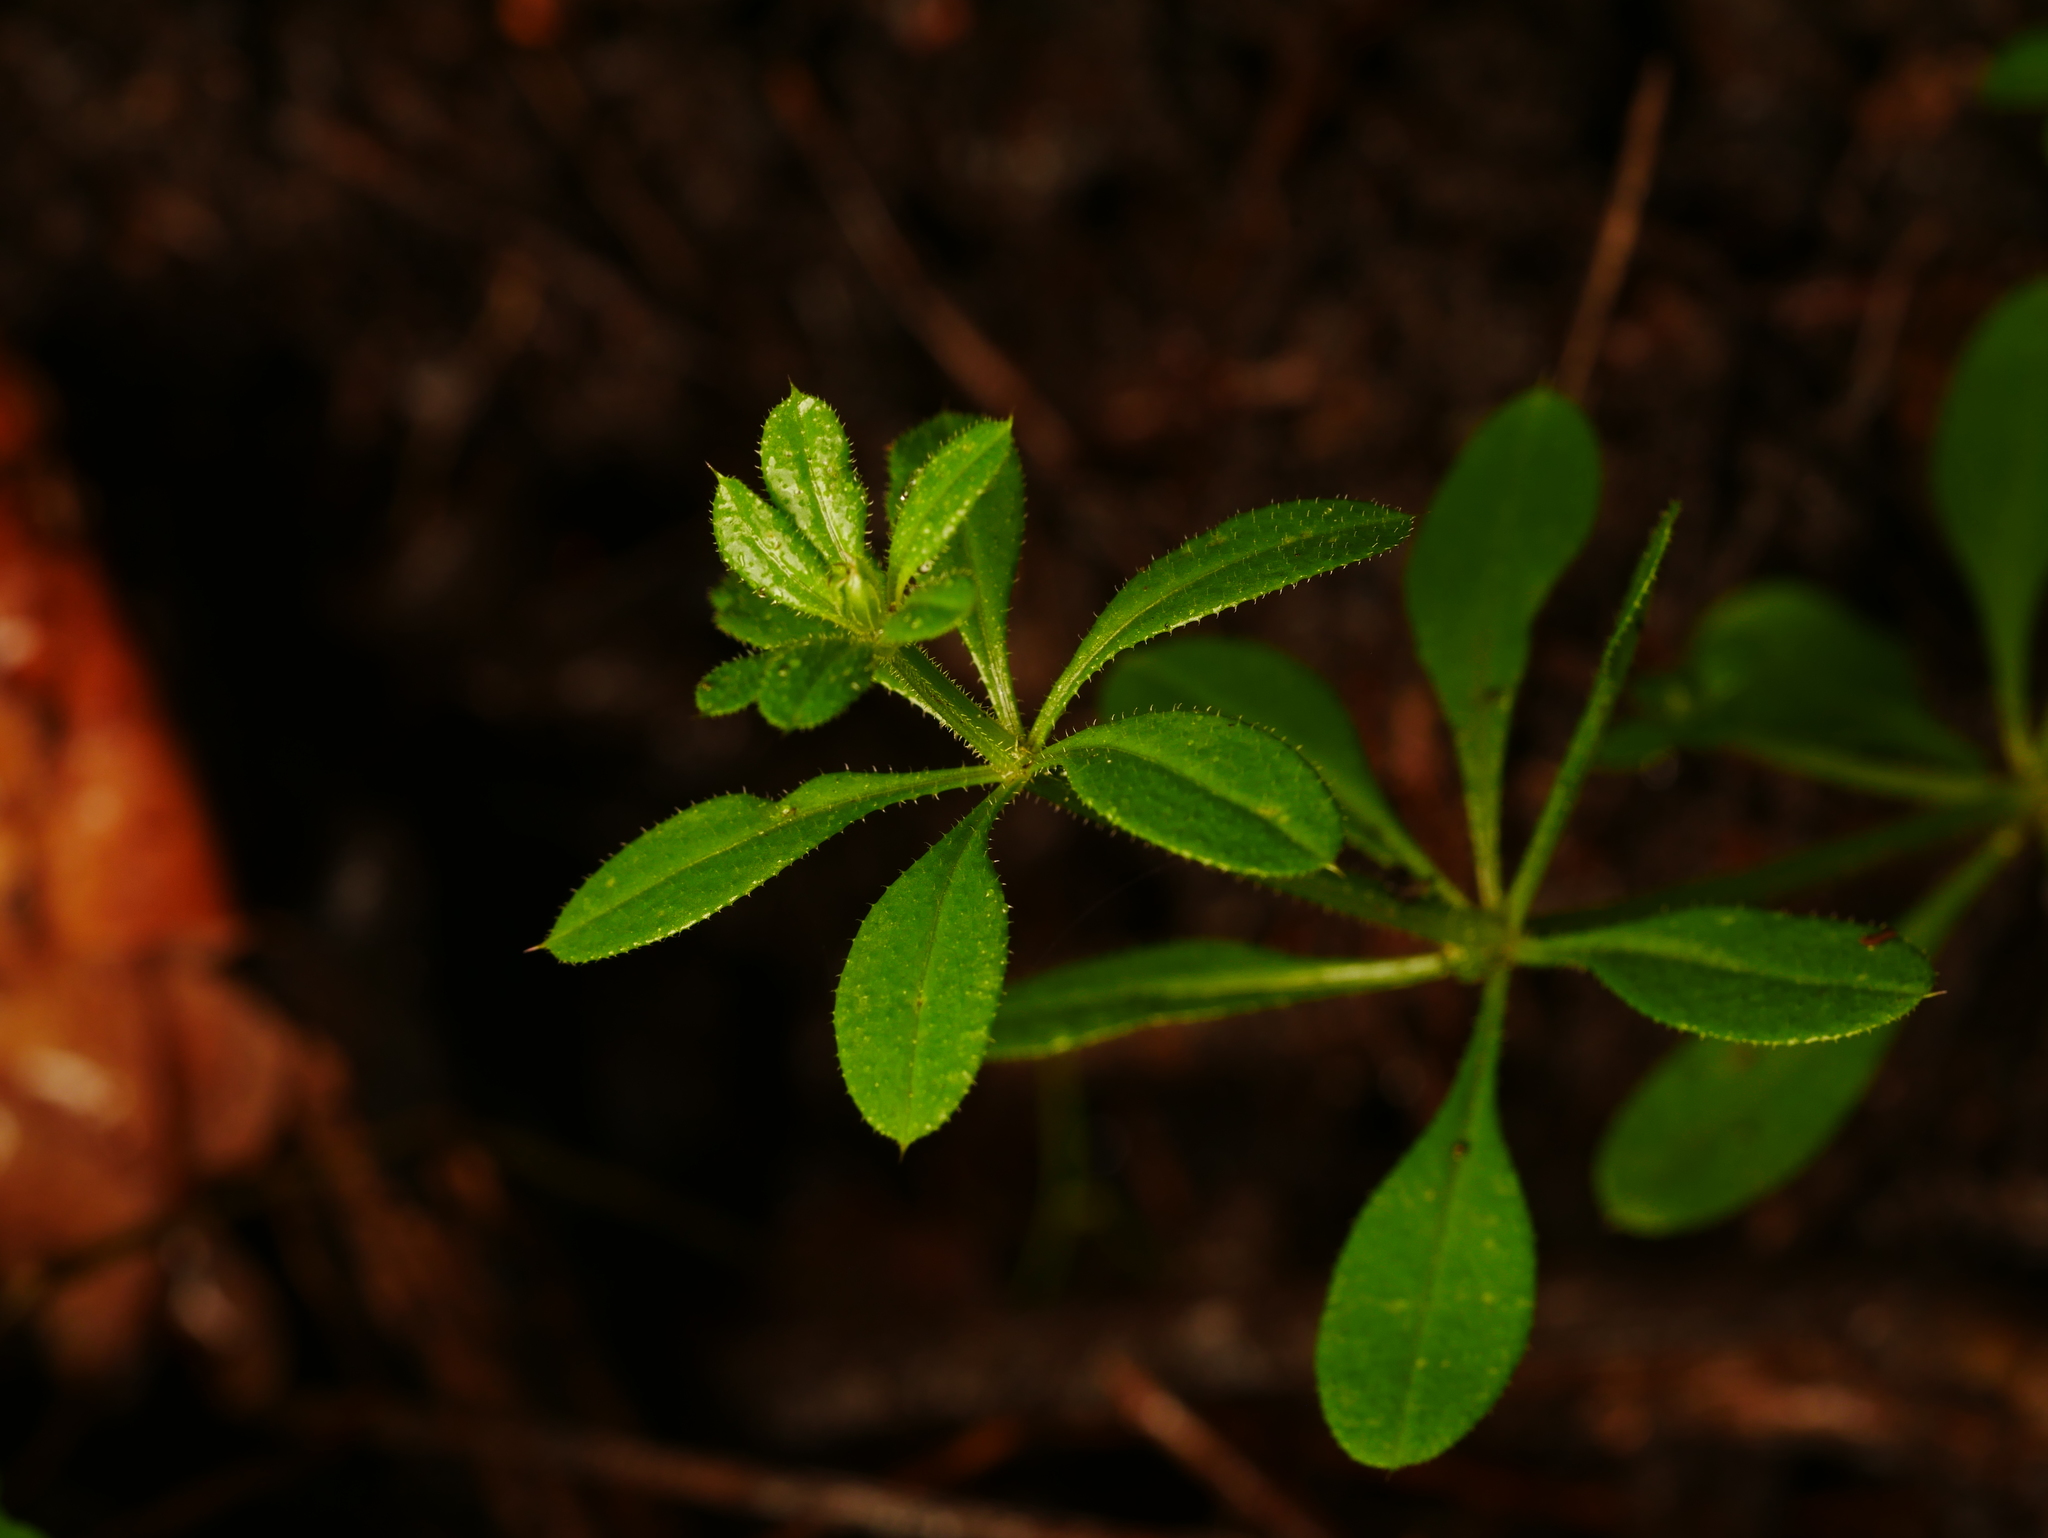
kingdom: Plantae
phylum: Tracheophyta
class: Magnoliopsida
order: Gentianales
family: Rubiaceae
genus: Galium
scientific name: Galium aparine
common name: Cleavers
